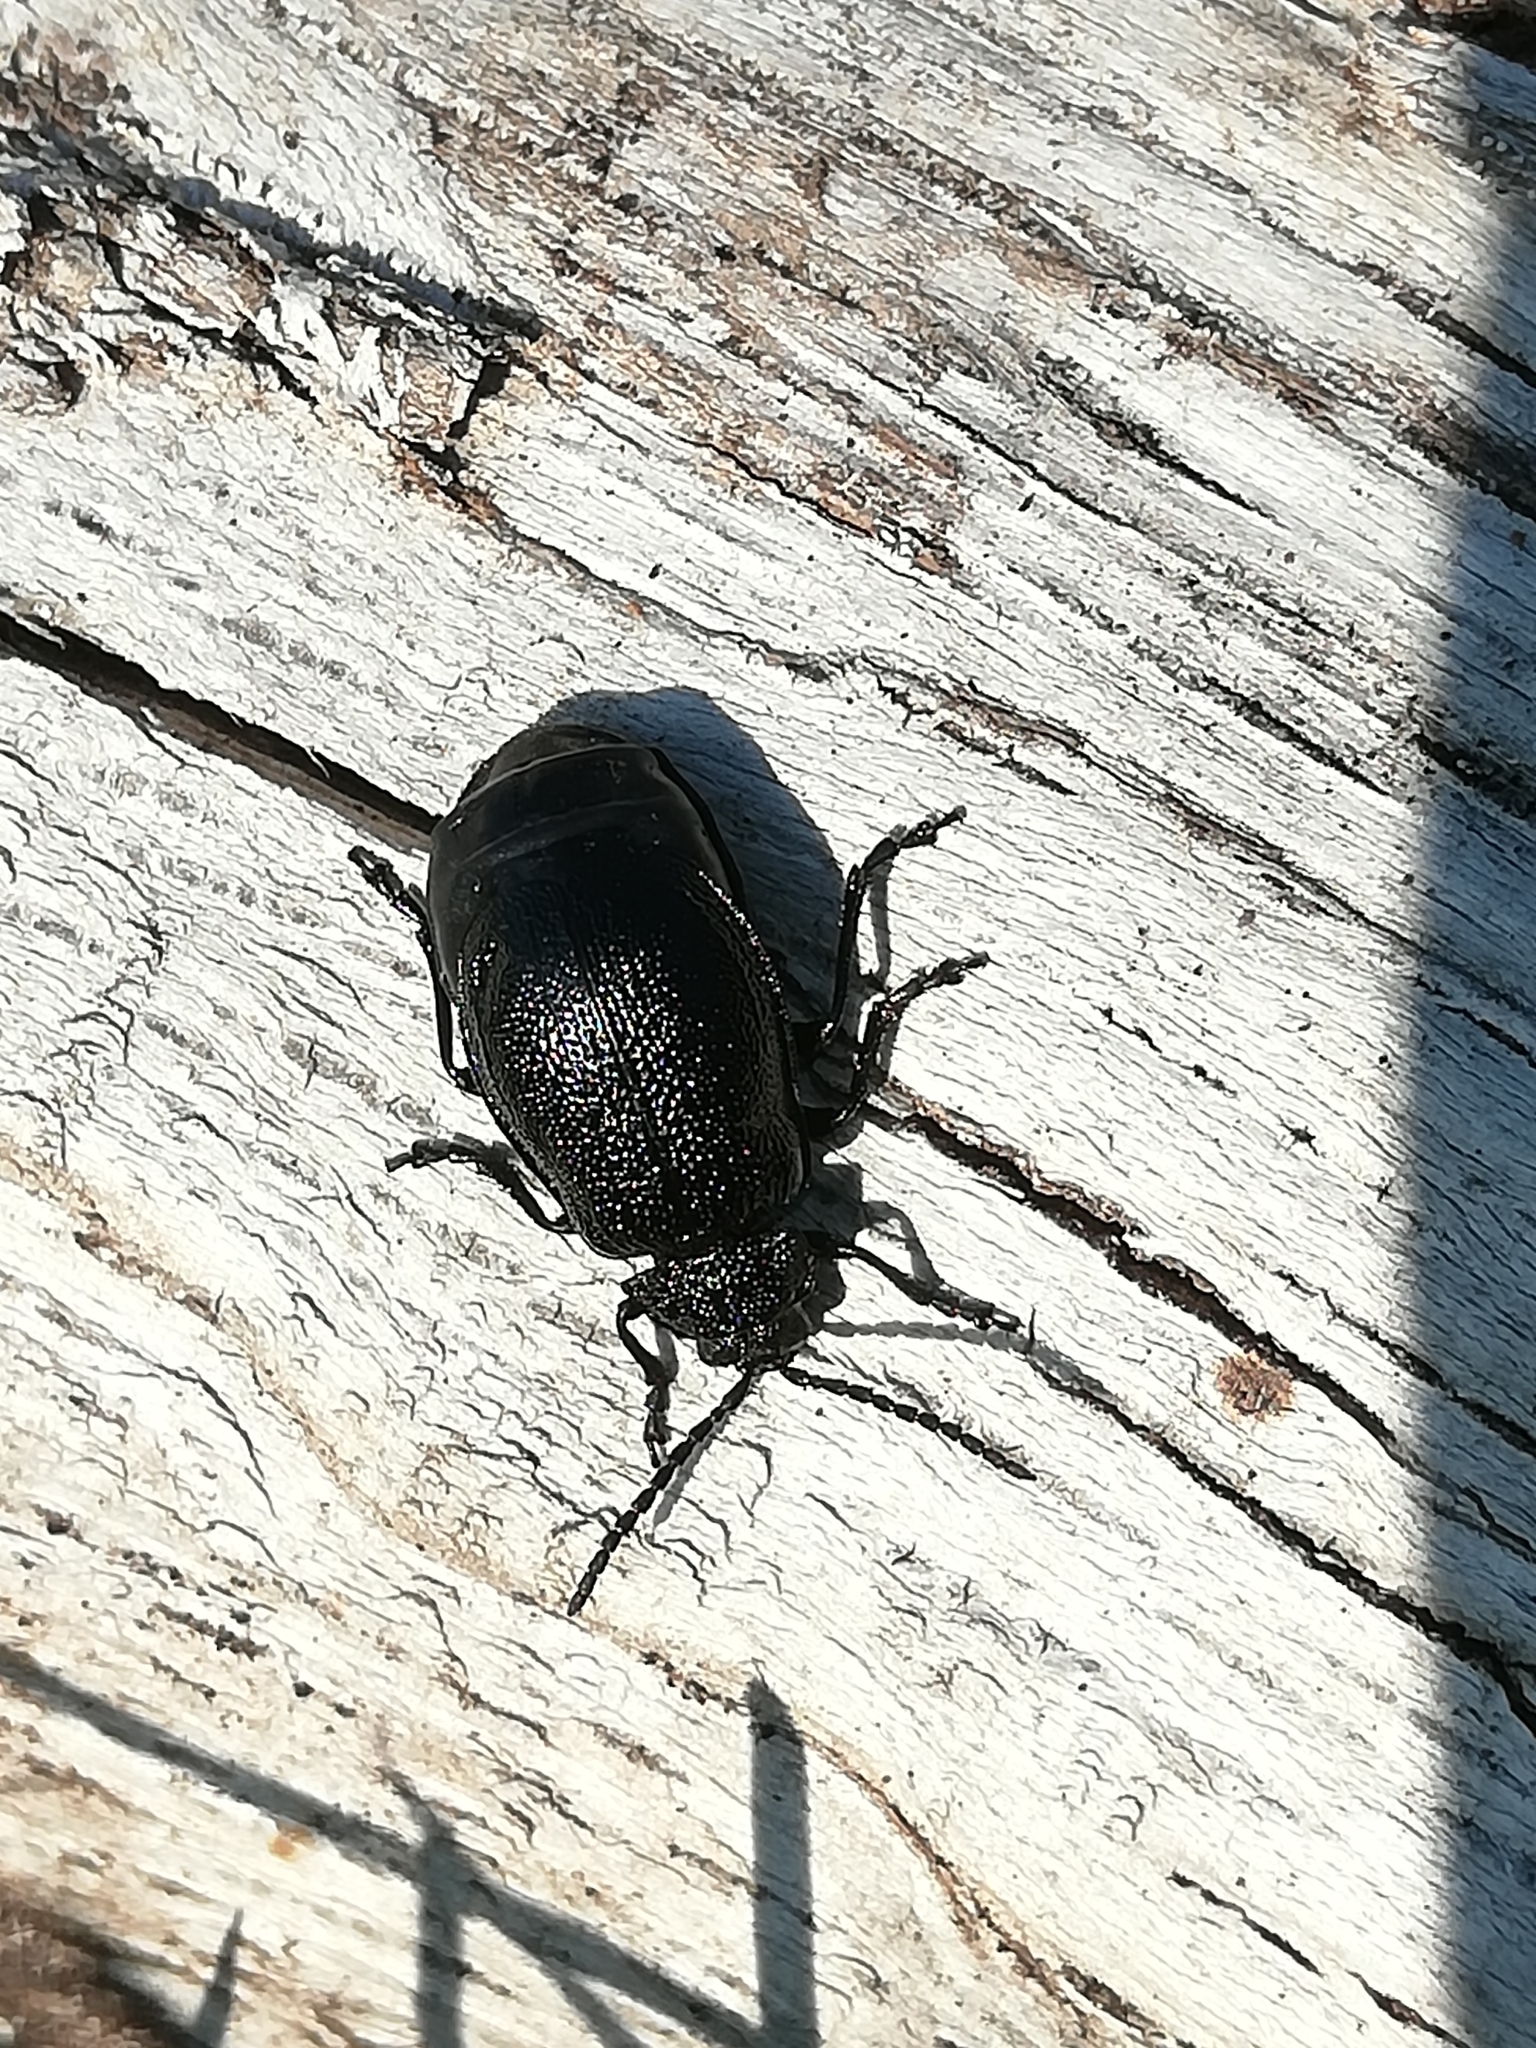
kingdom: Animalia
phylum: Arthropoda
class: Insecta
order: Coleoptera
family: Chrysomelidae
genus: Galeruca
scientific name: Galeruca tanaceti
